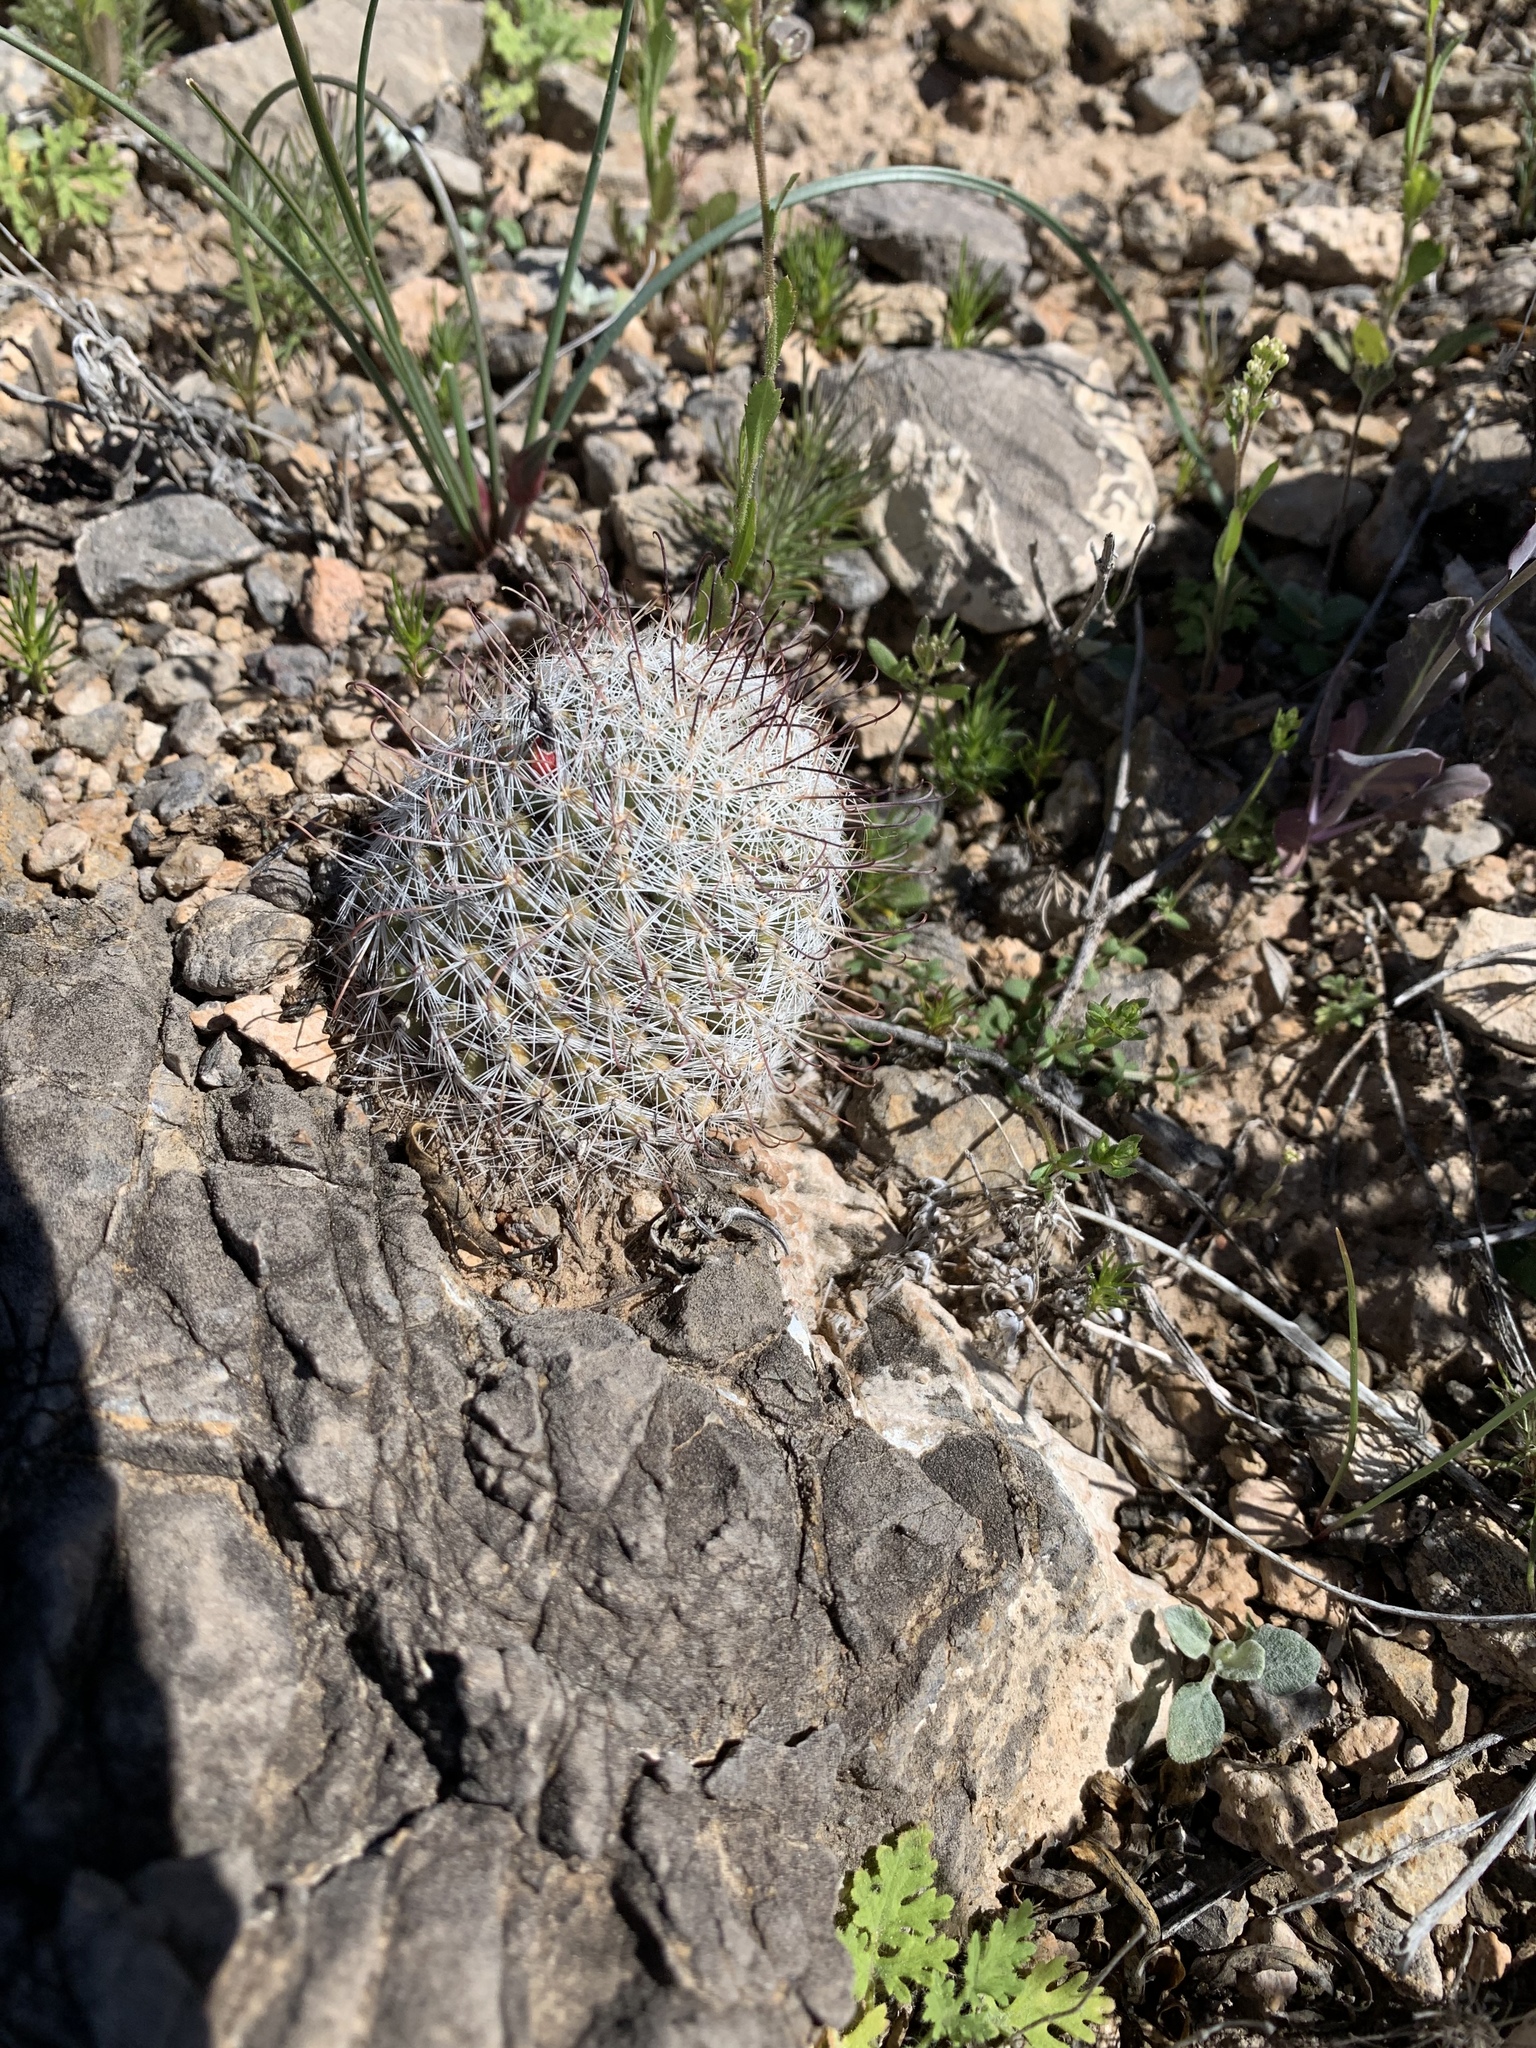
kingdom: Plantae
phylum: Tracheophyta
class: Magnoliopsida
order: Caryophyllales
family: Cactaceae
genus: Cochemiea
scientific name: Cochemiea grahamii
